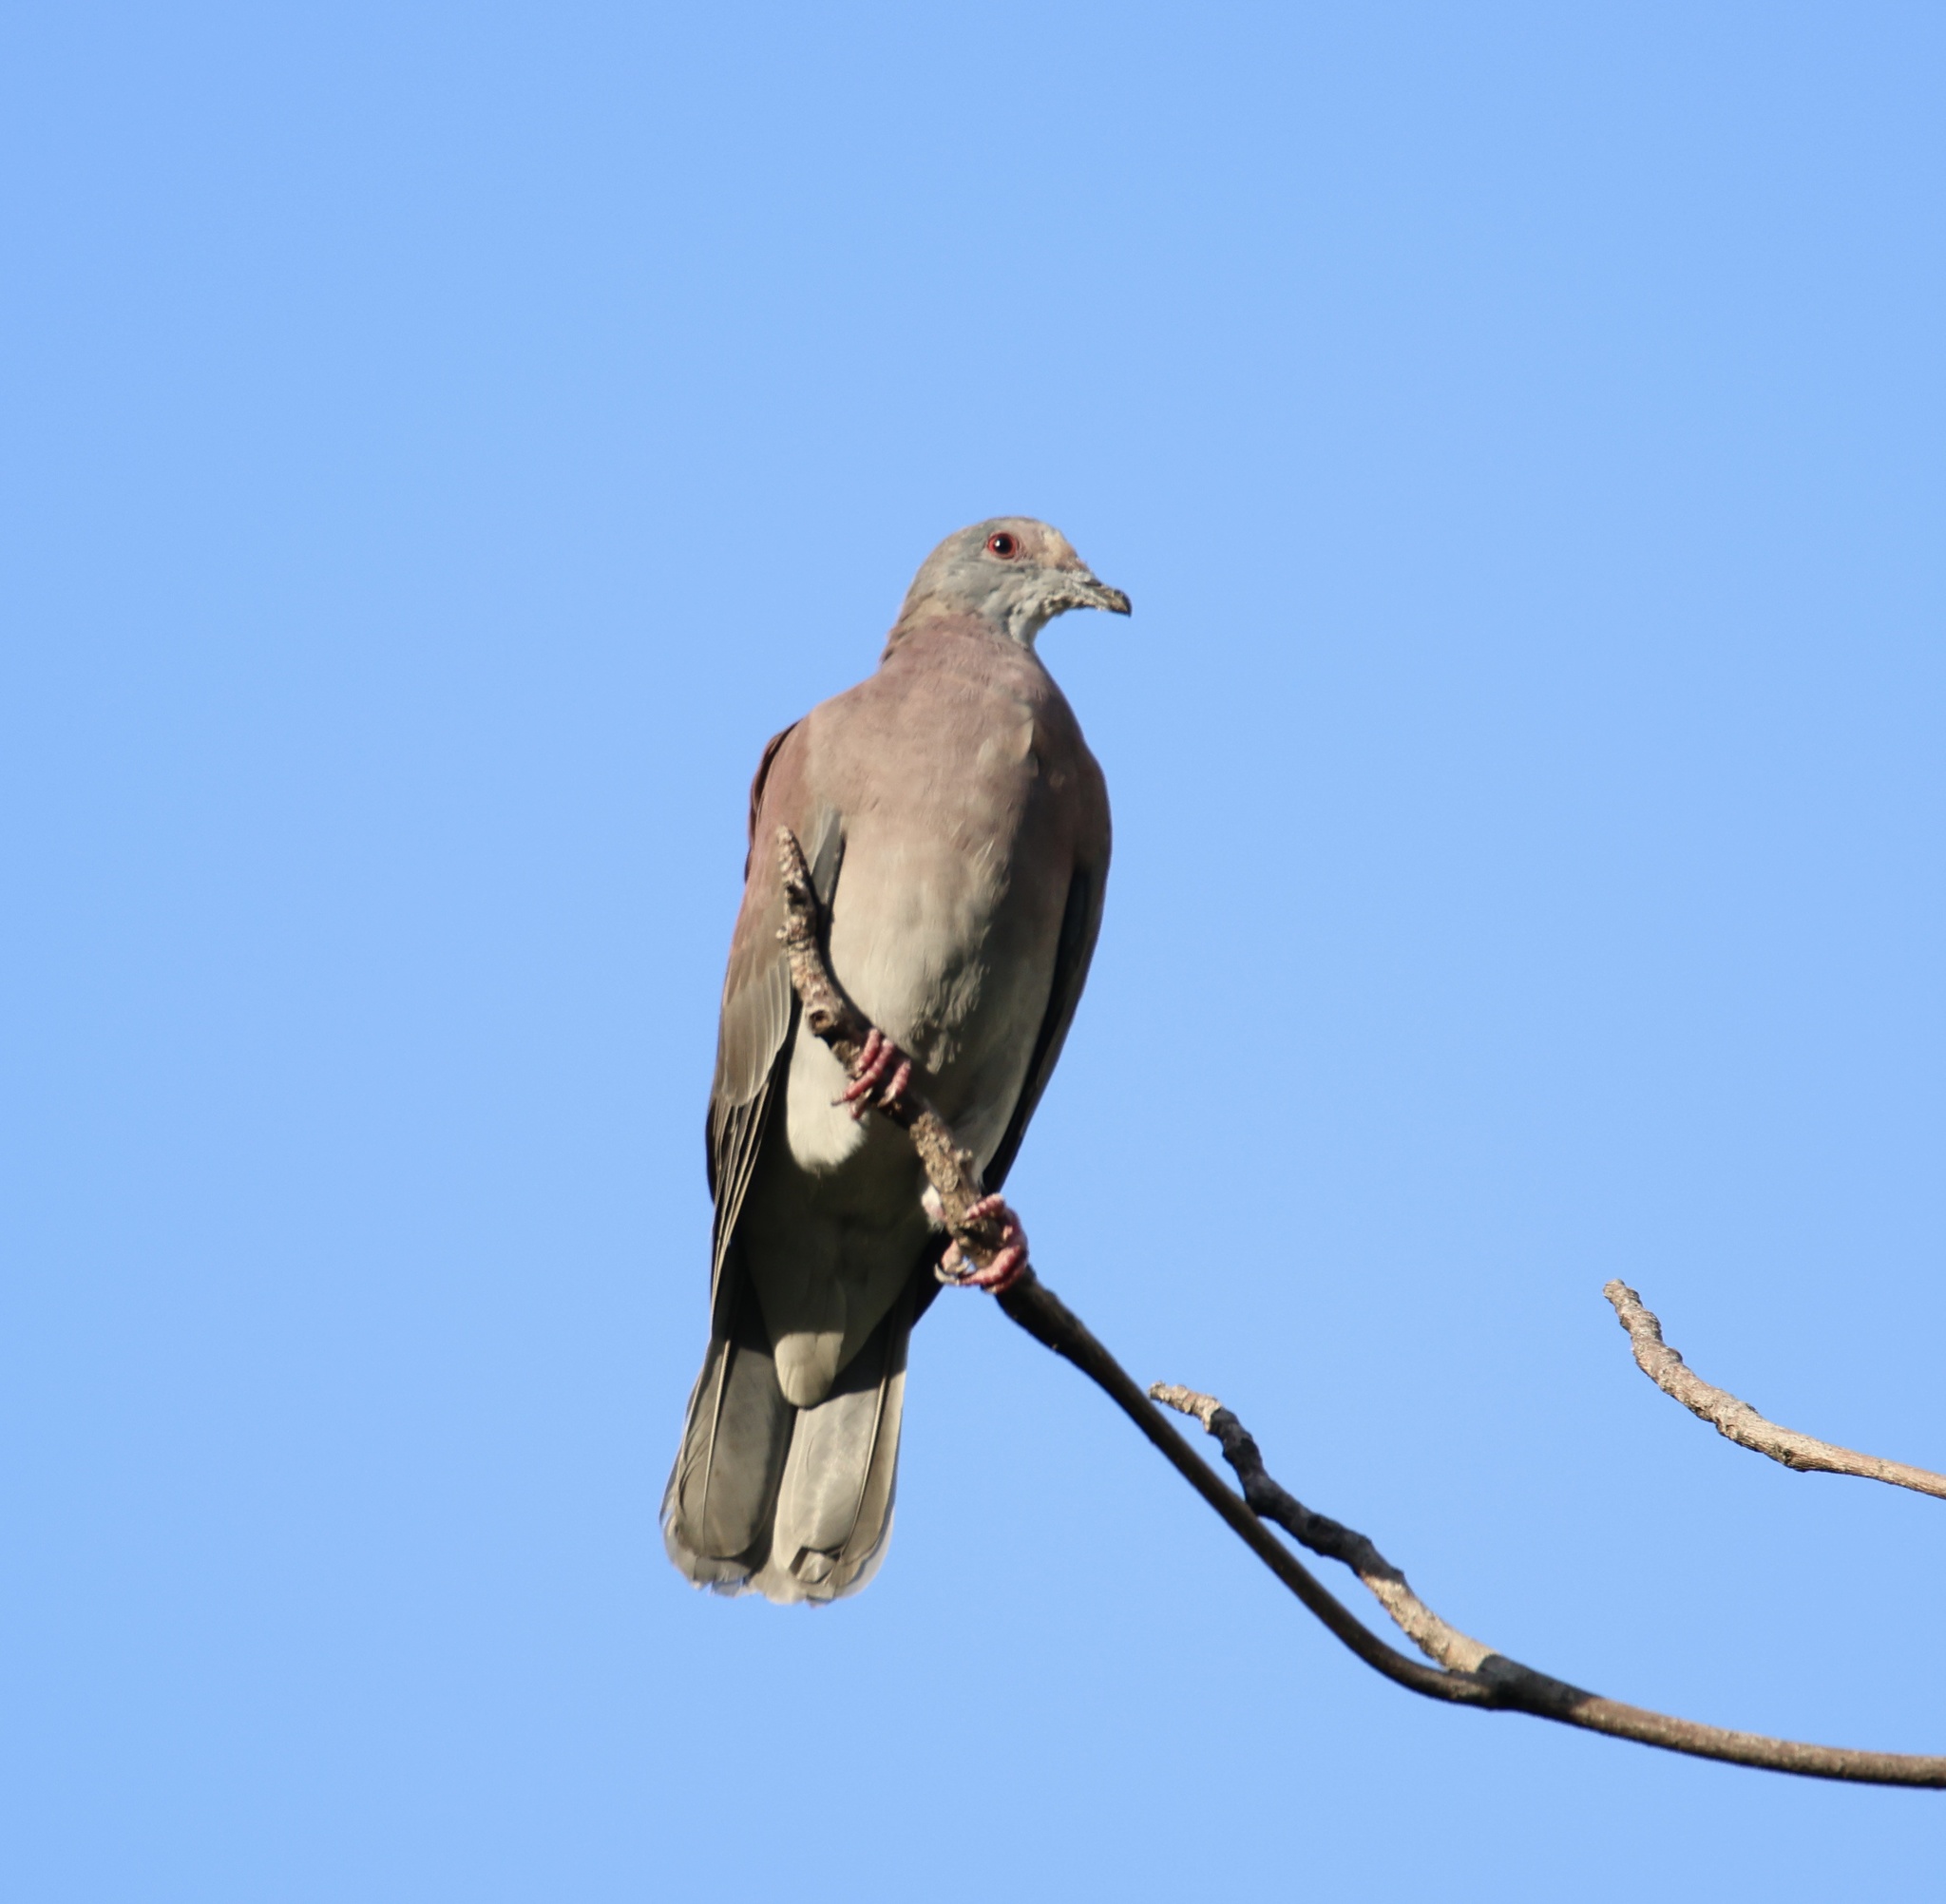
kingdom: Animalia
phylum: Chordata
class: Aves
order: Columbiformes
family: Columbidae
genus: Patagioenas
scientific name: Patagioenas cayennensis
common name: Pale-vented pigeon
